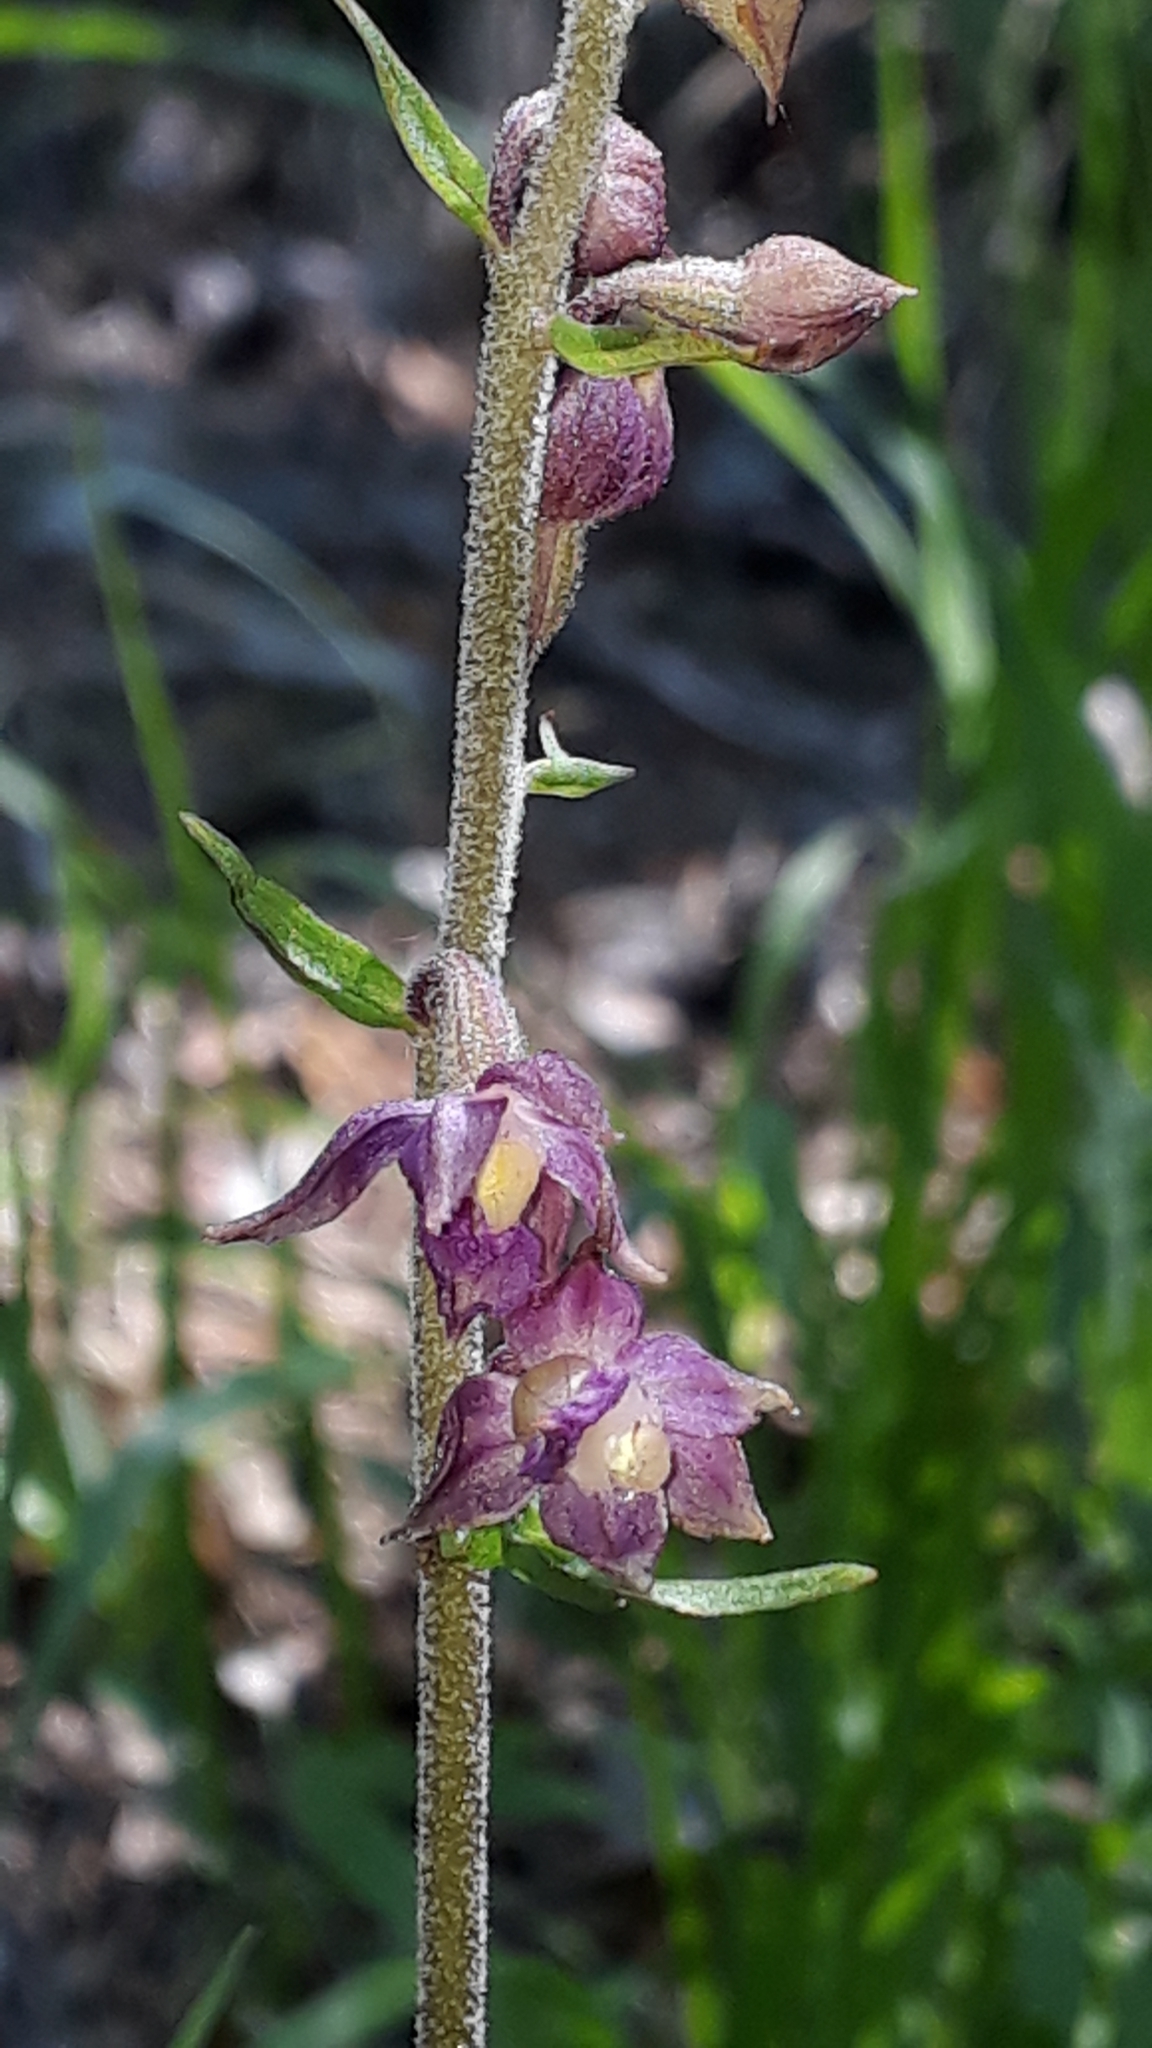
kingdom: Plantae
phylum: Tracheophyta
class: Liliopsida
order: Asparagales
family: Orchidaceae
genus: Epipactis
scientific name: Epipactis atrorubens
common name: Dark-red helleborine
